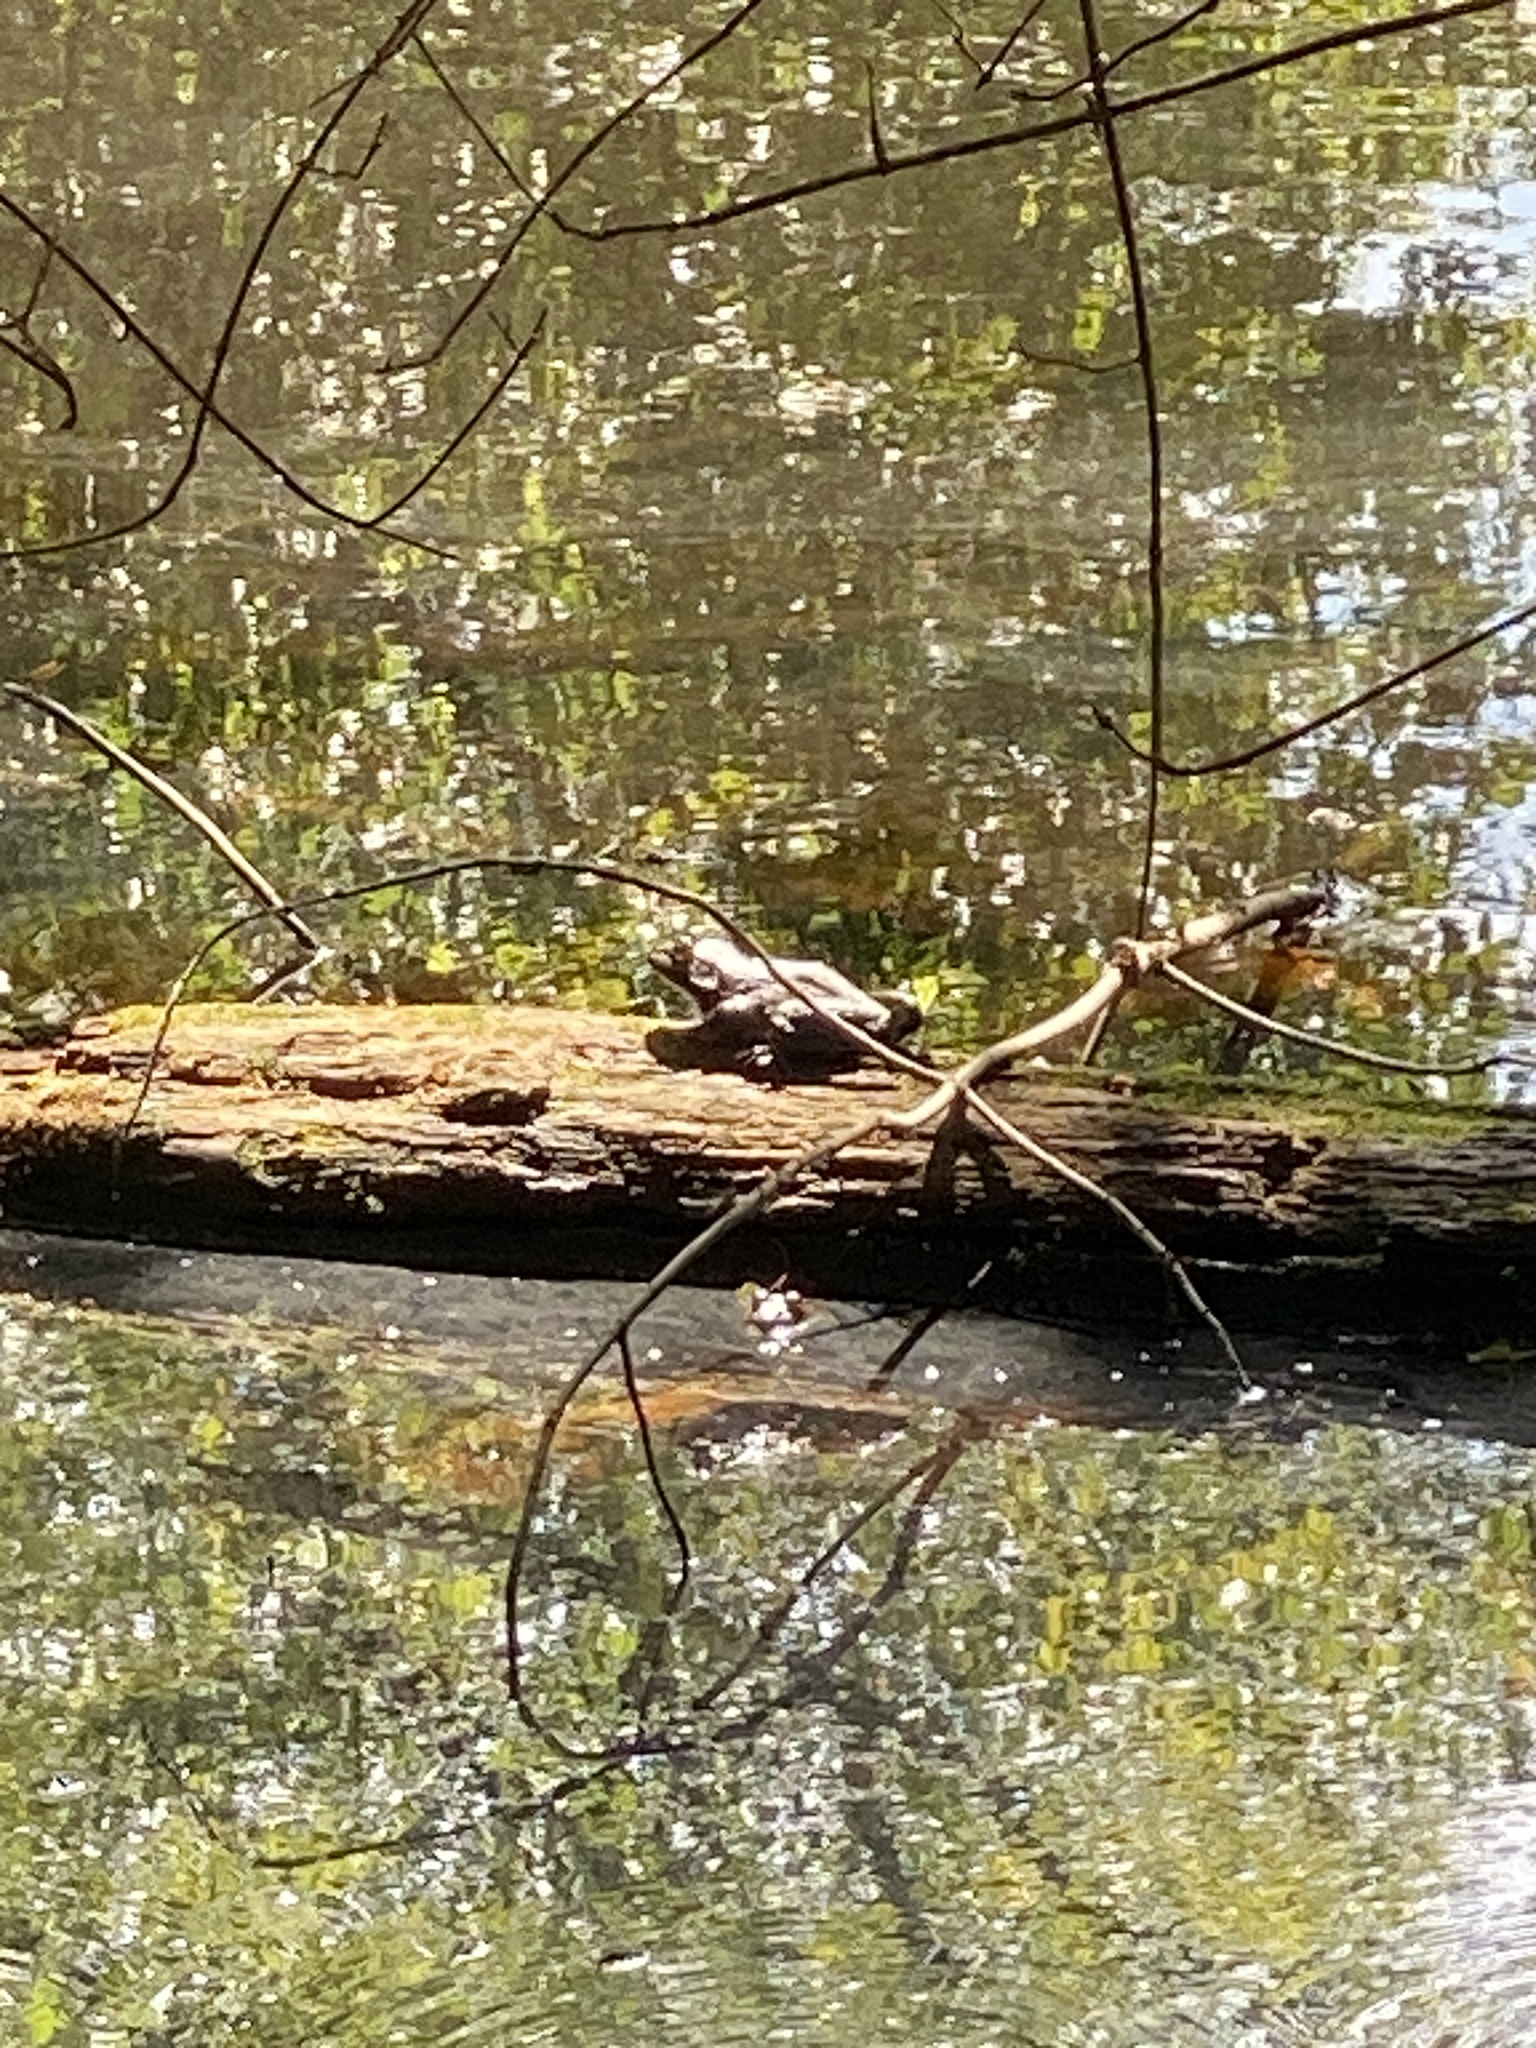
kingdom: Animalia
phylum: Chordata
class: Amphibia
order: Anura
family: Ranidae
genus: Lithobates
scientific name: Lithobates catesbeianus
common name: American bullfrog
